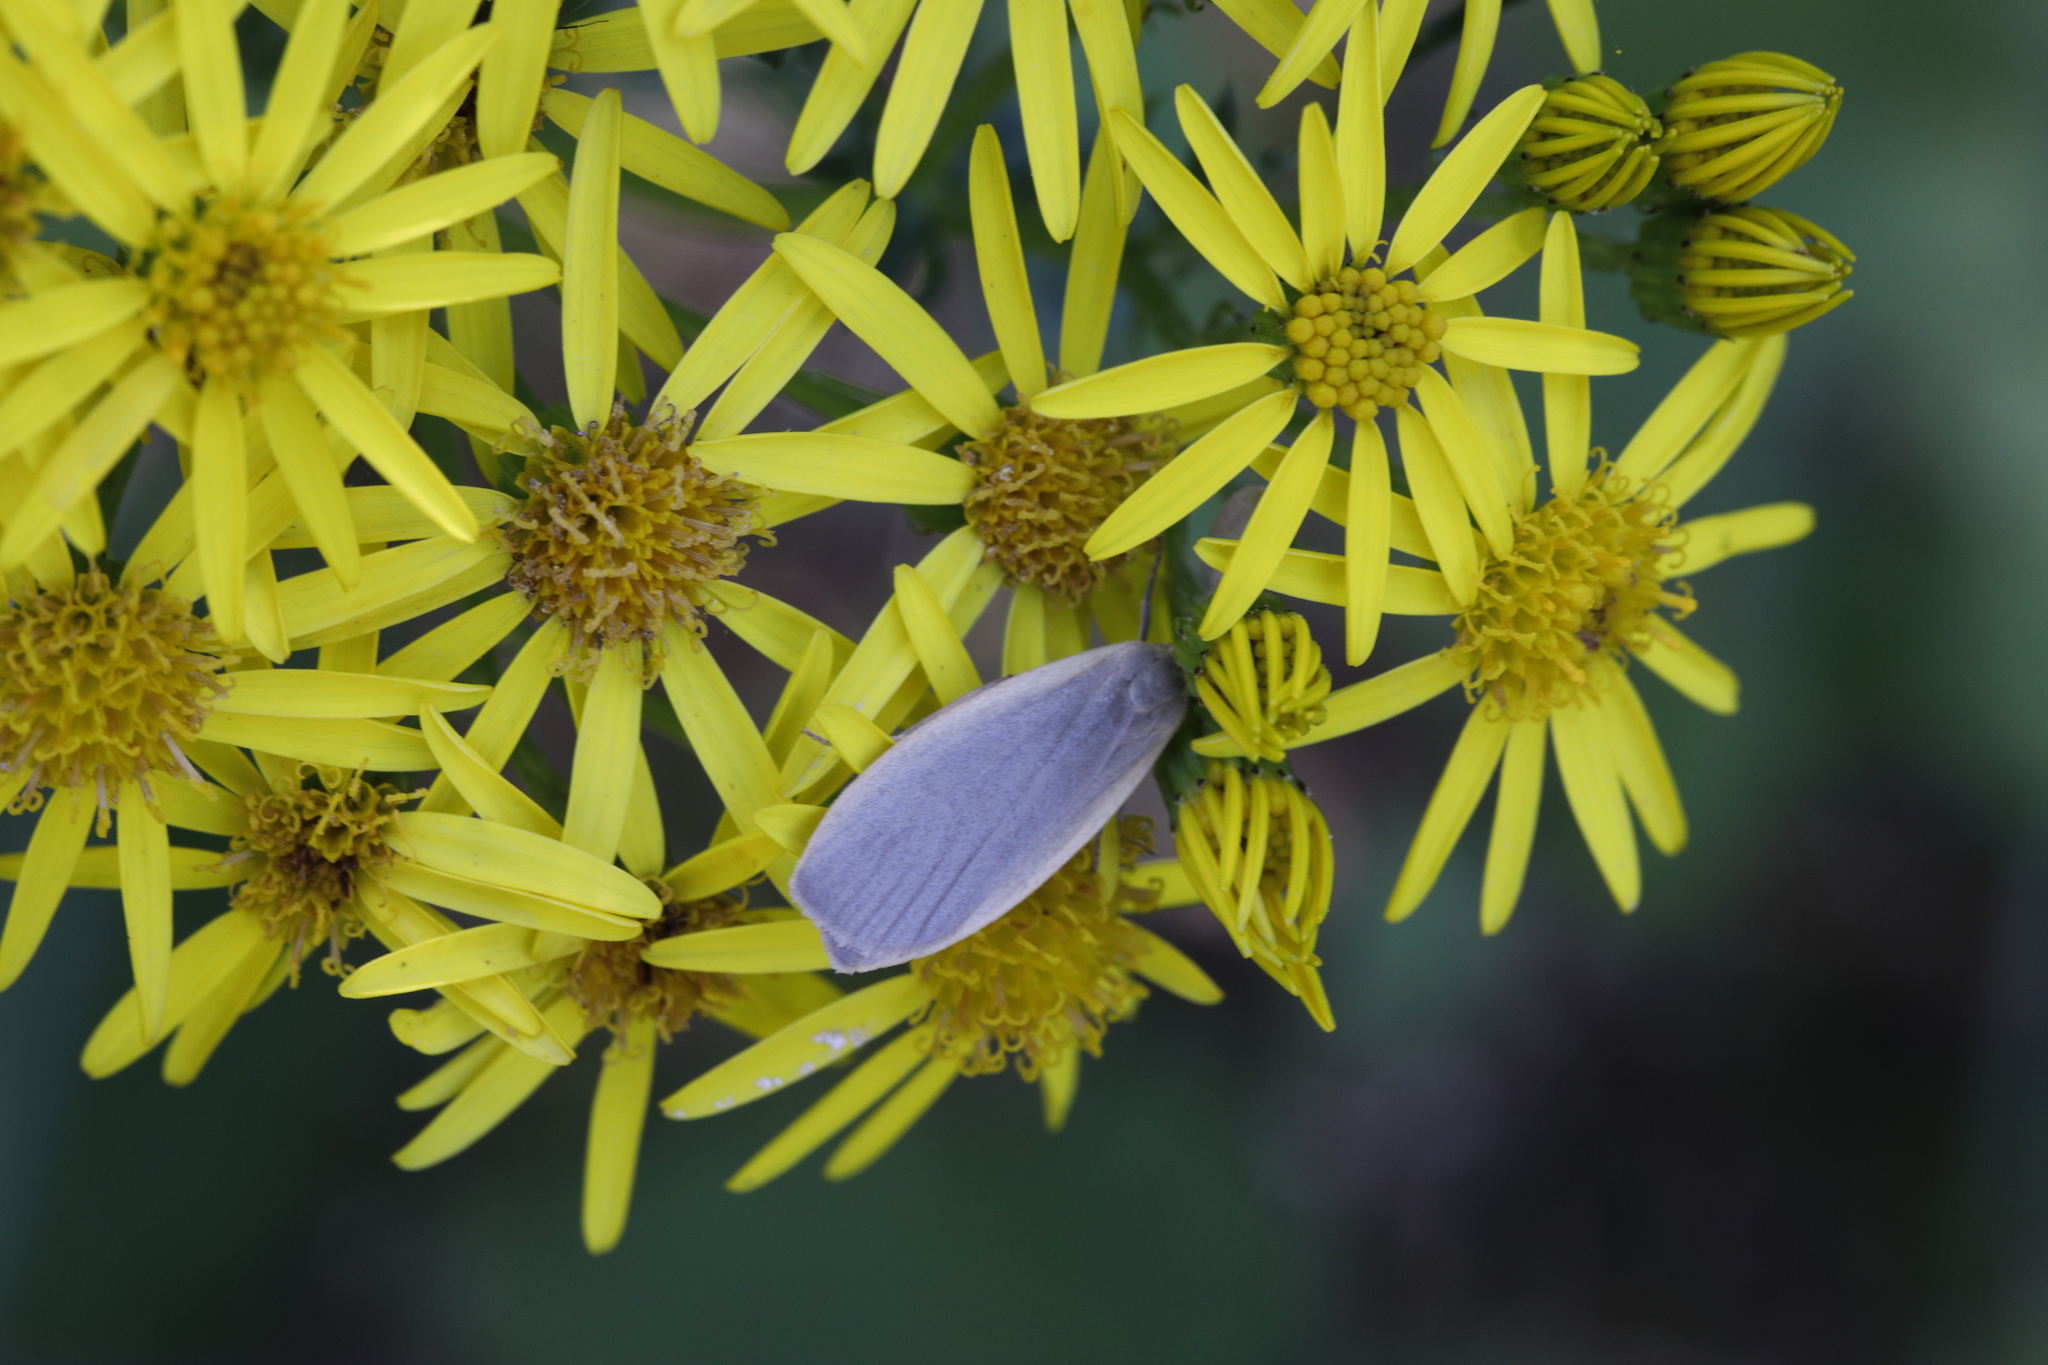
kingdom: Animalia
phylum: Arthropoda
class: Insecta
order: Lepidoptera
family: Erebidae
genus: Collita
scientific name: Collita griseola
